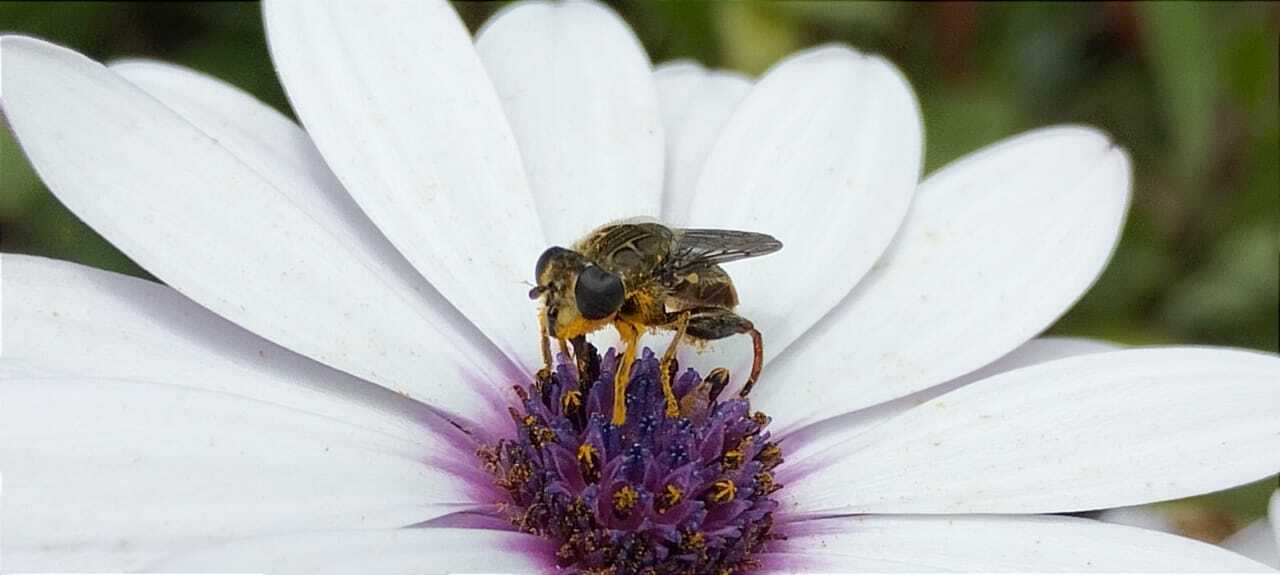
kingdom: Animalia
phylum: Arthropoda
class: Insecta
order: Diptera
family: Syrphidae
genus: Asemosyrphus
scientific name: Asemosyrphus
